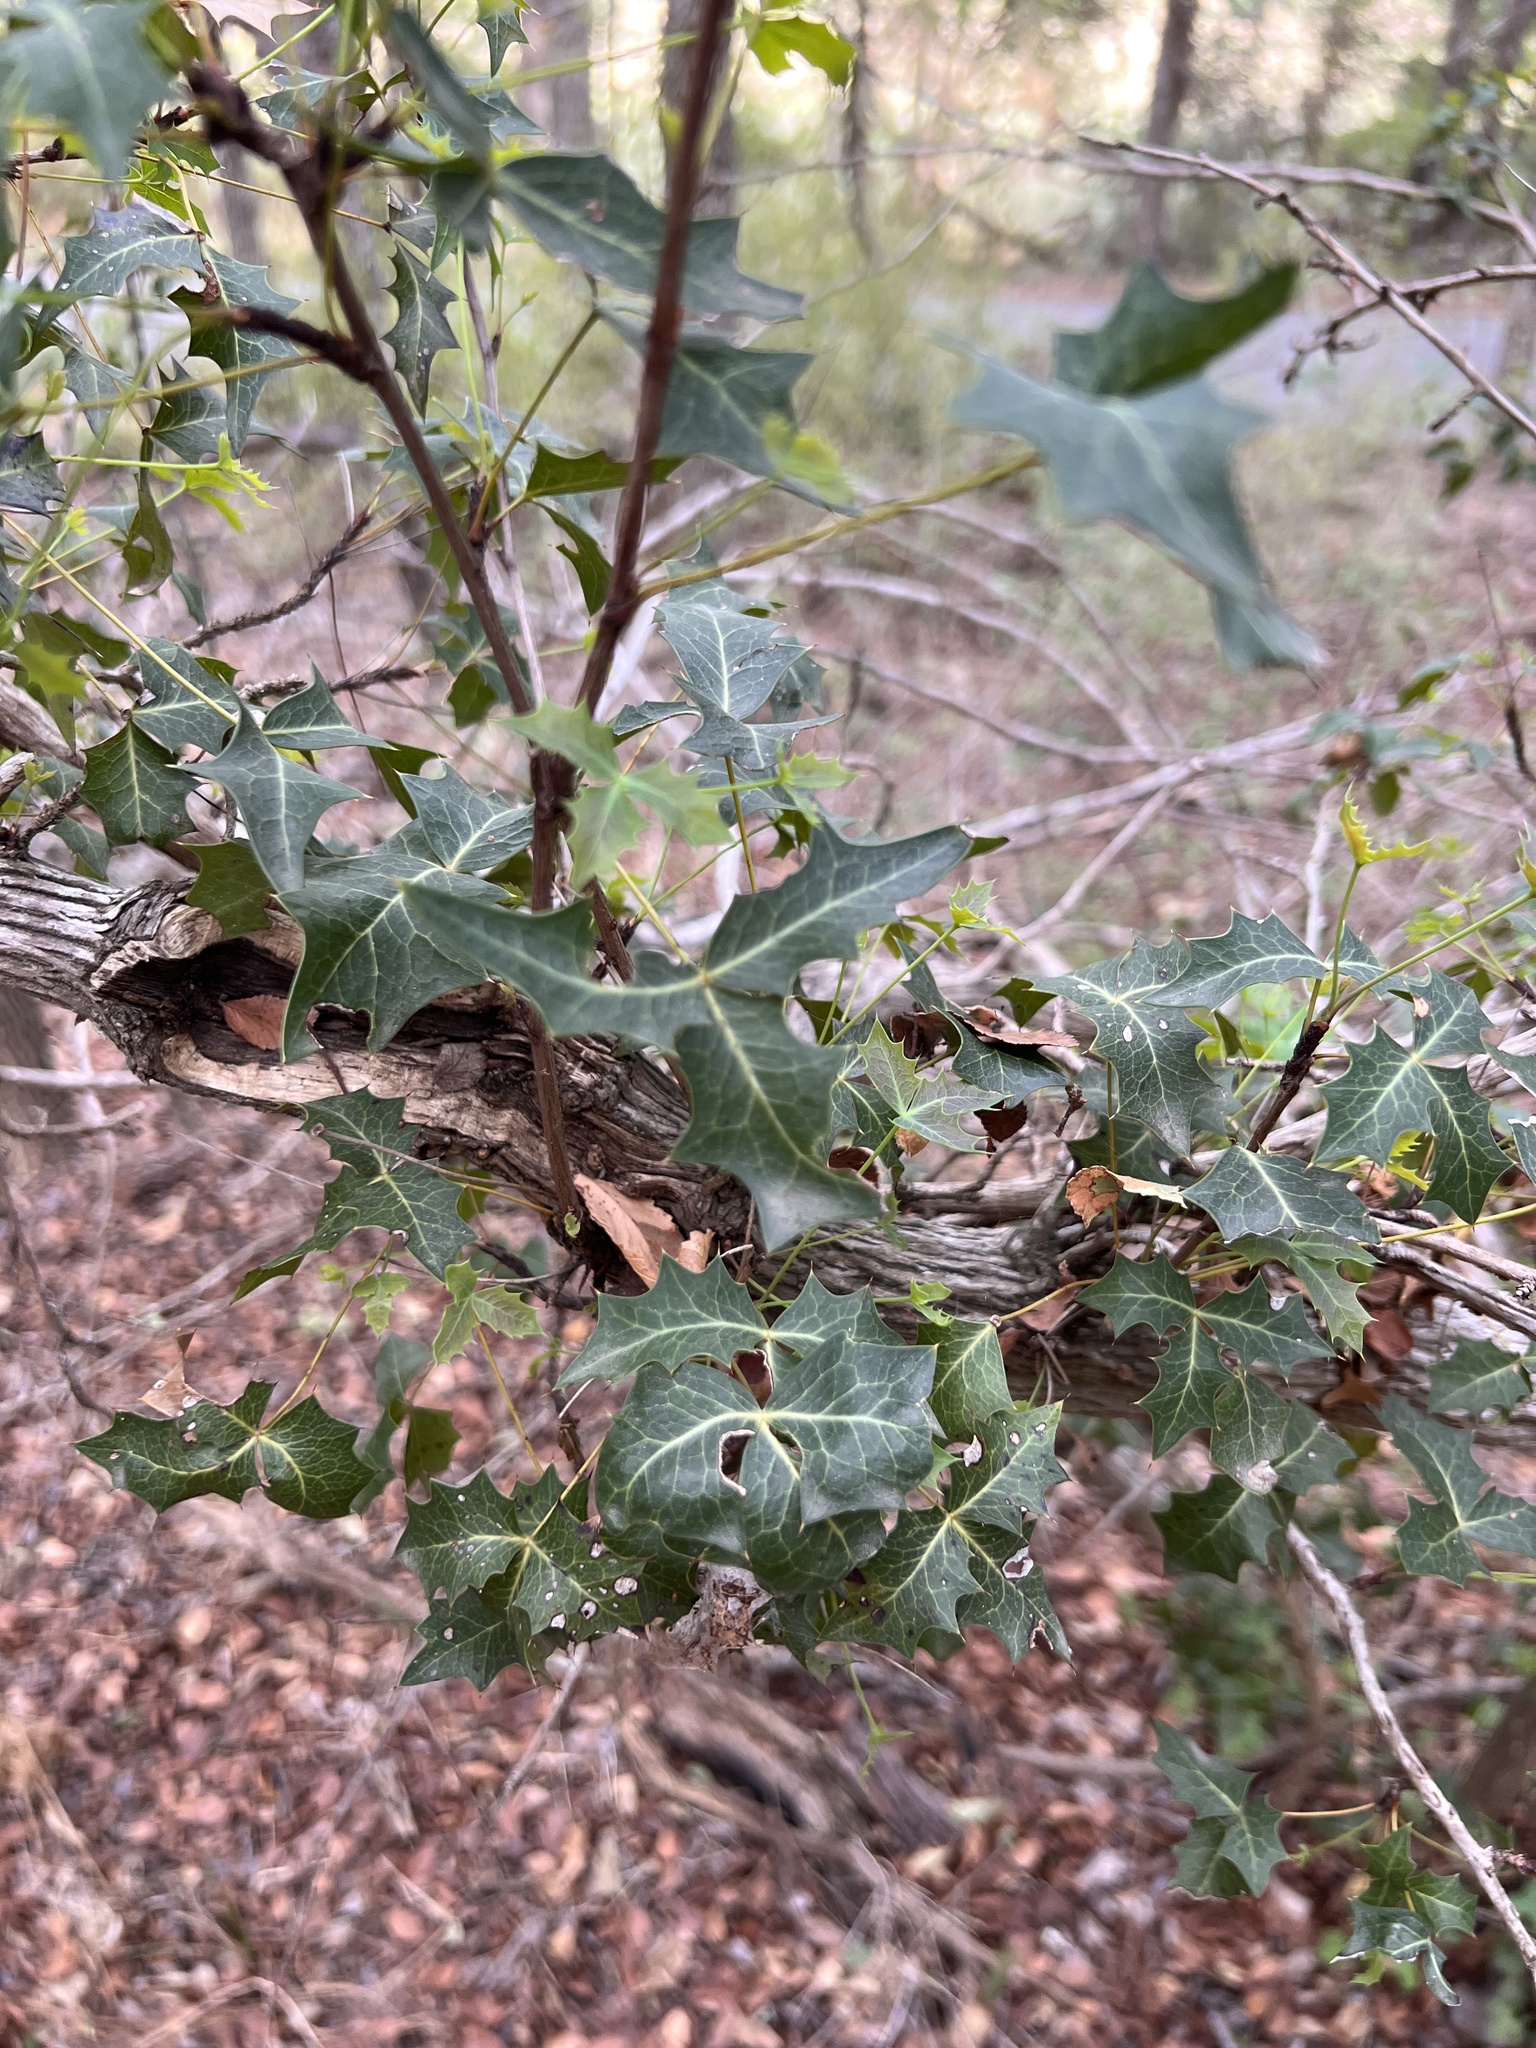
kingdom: Plantae
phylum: Tracheophyta
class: Magnoliopsida
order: Ranunculales
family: Berberidaceae
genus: Alloberberis
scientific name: Alloberberis trifoliolata
